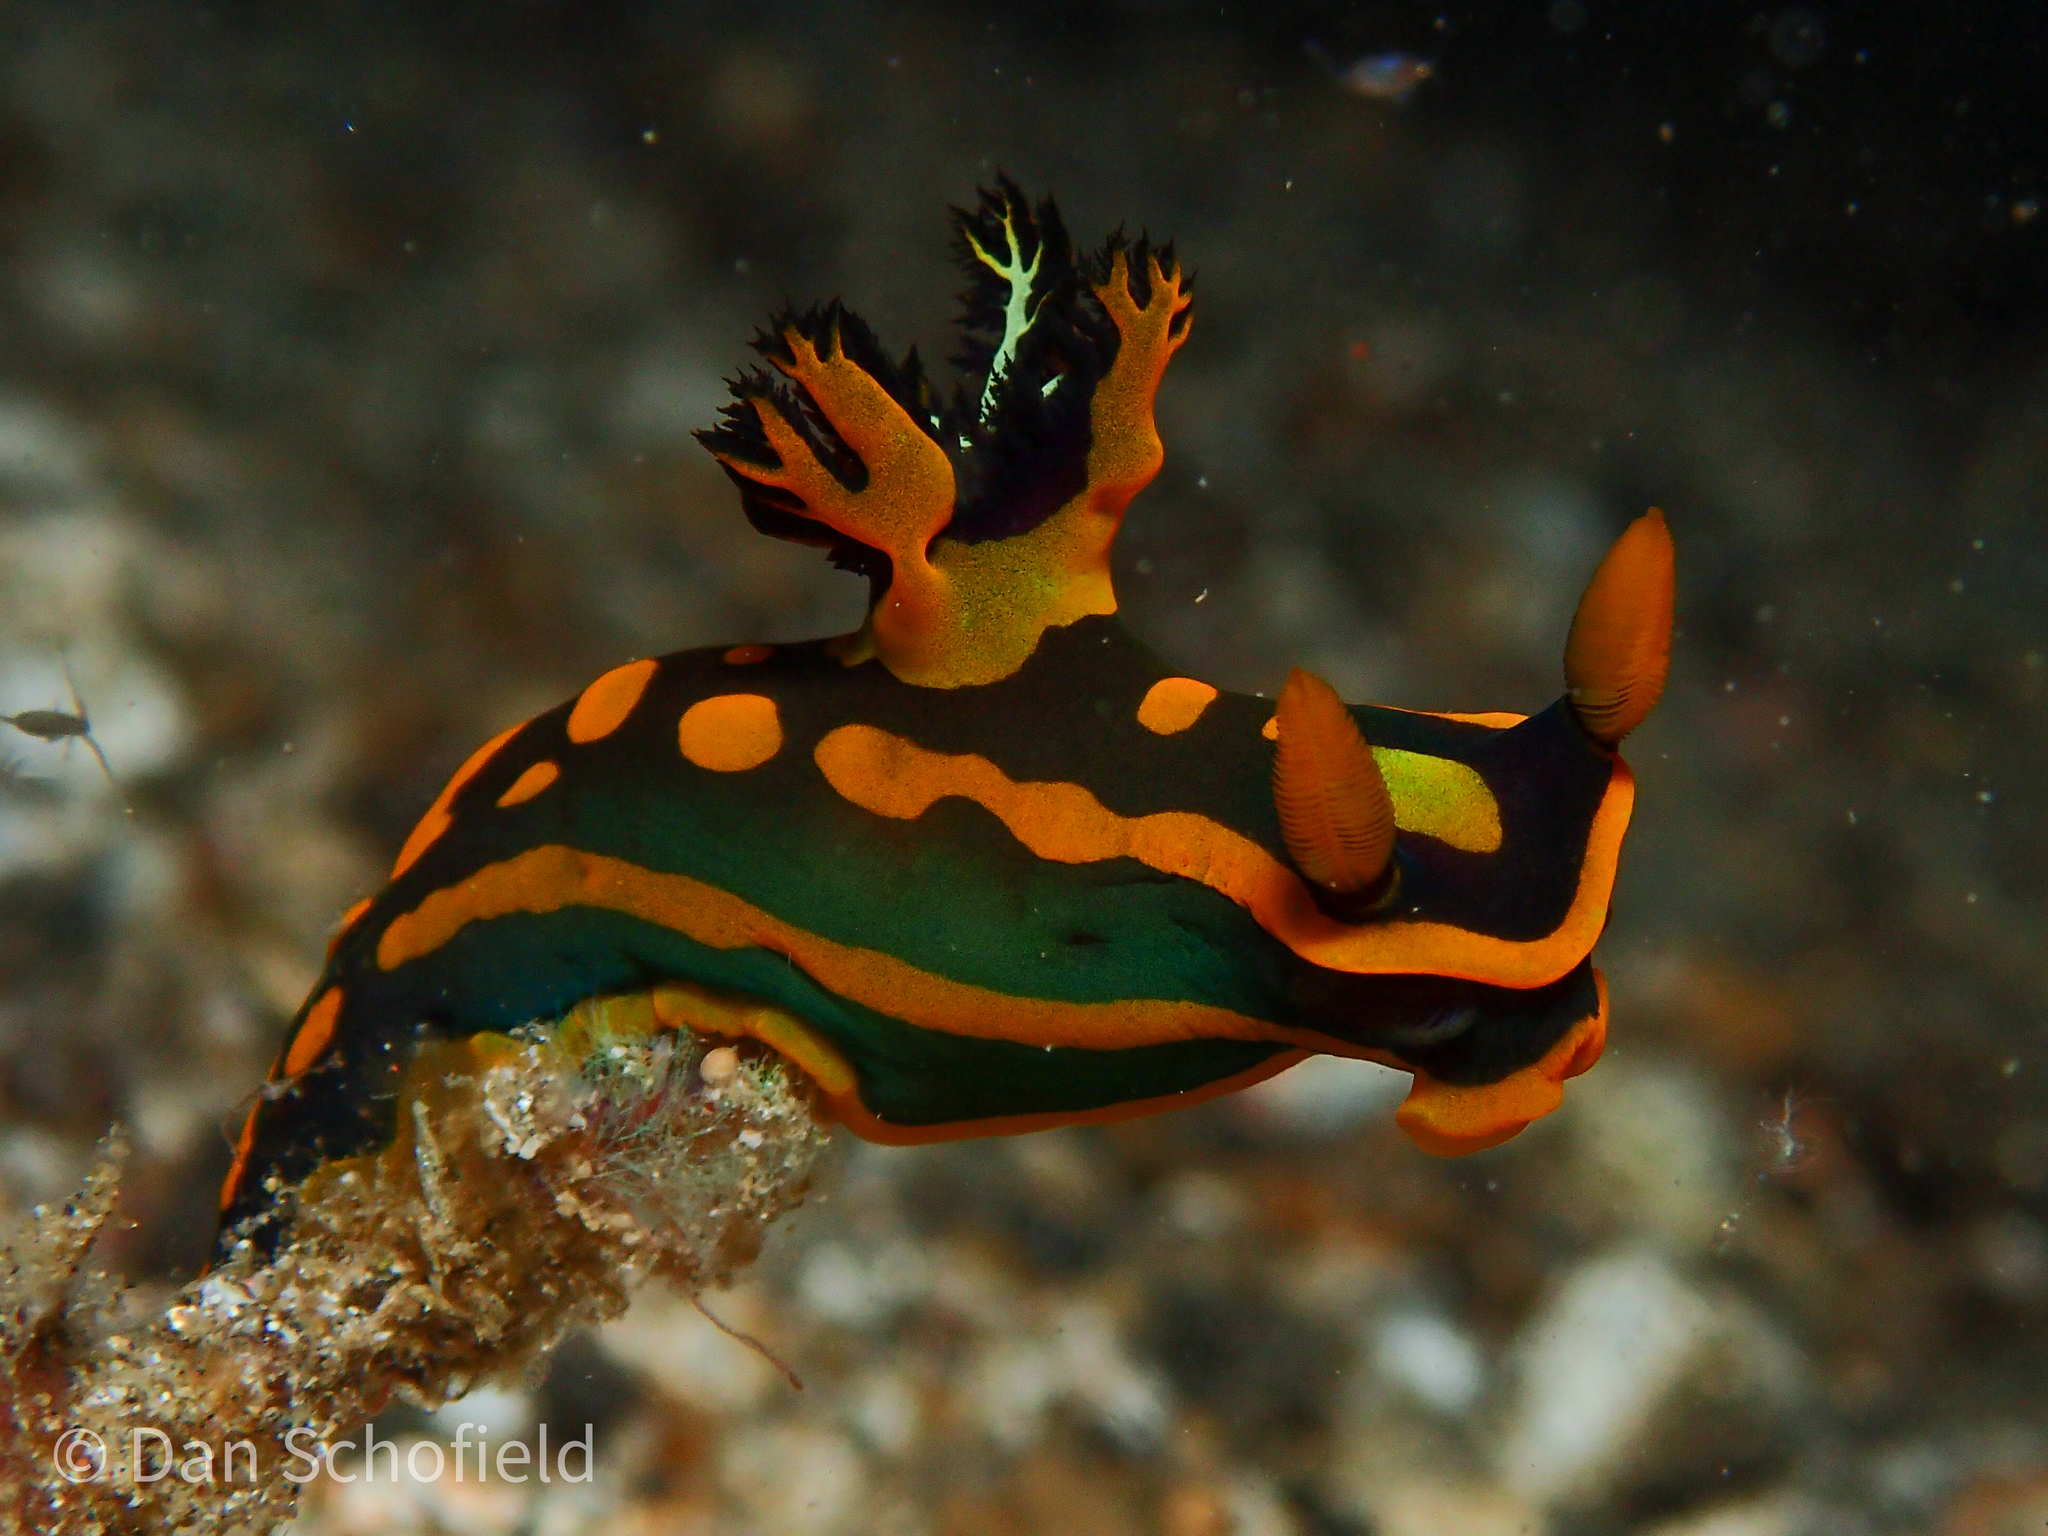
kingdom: Animalia
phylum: Mollusca
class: Gastropoda
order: Nudibranchia
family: Polyceridae
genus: Tambja
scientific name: Tambja gabrielae
